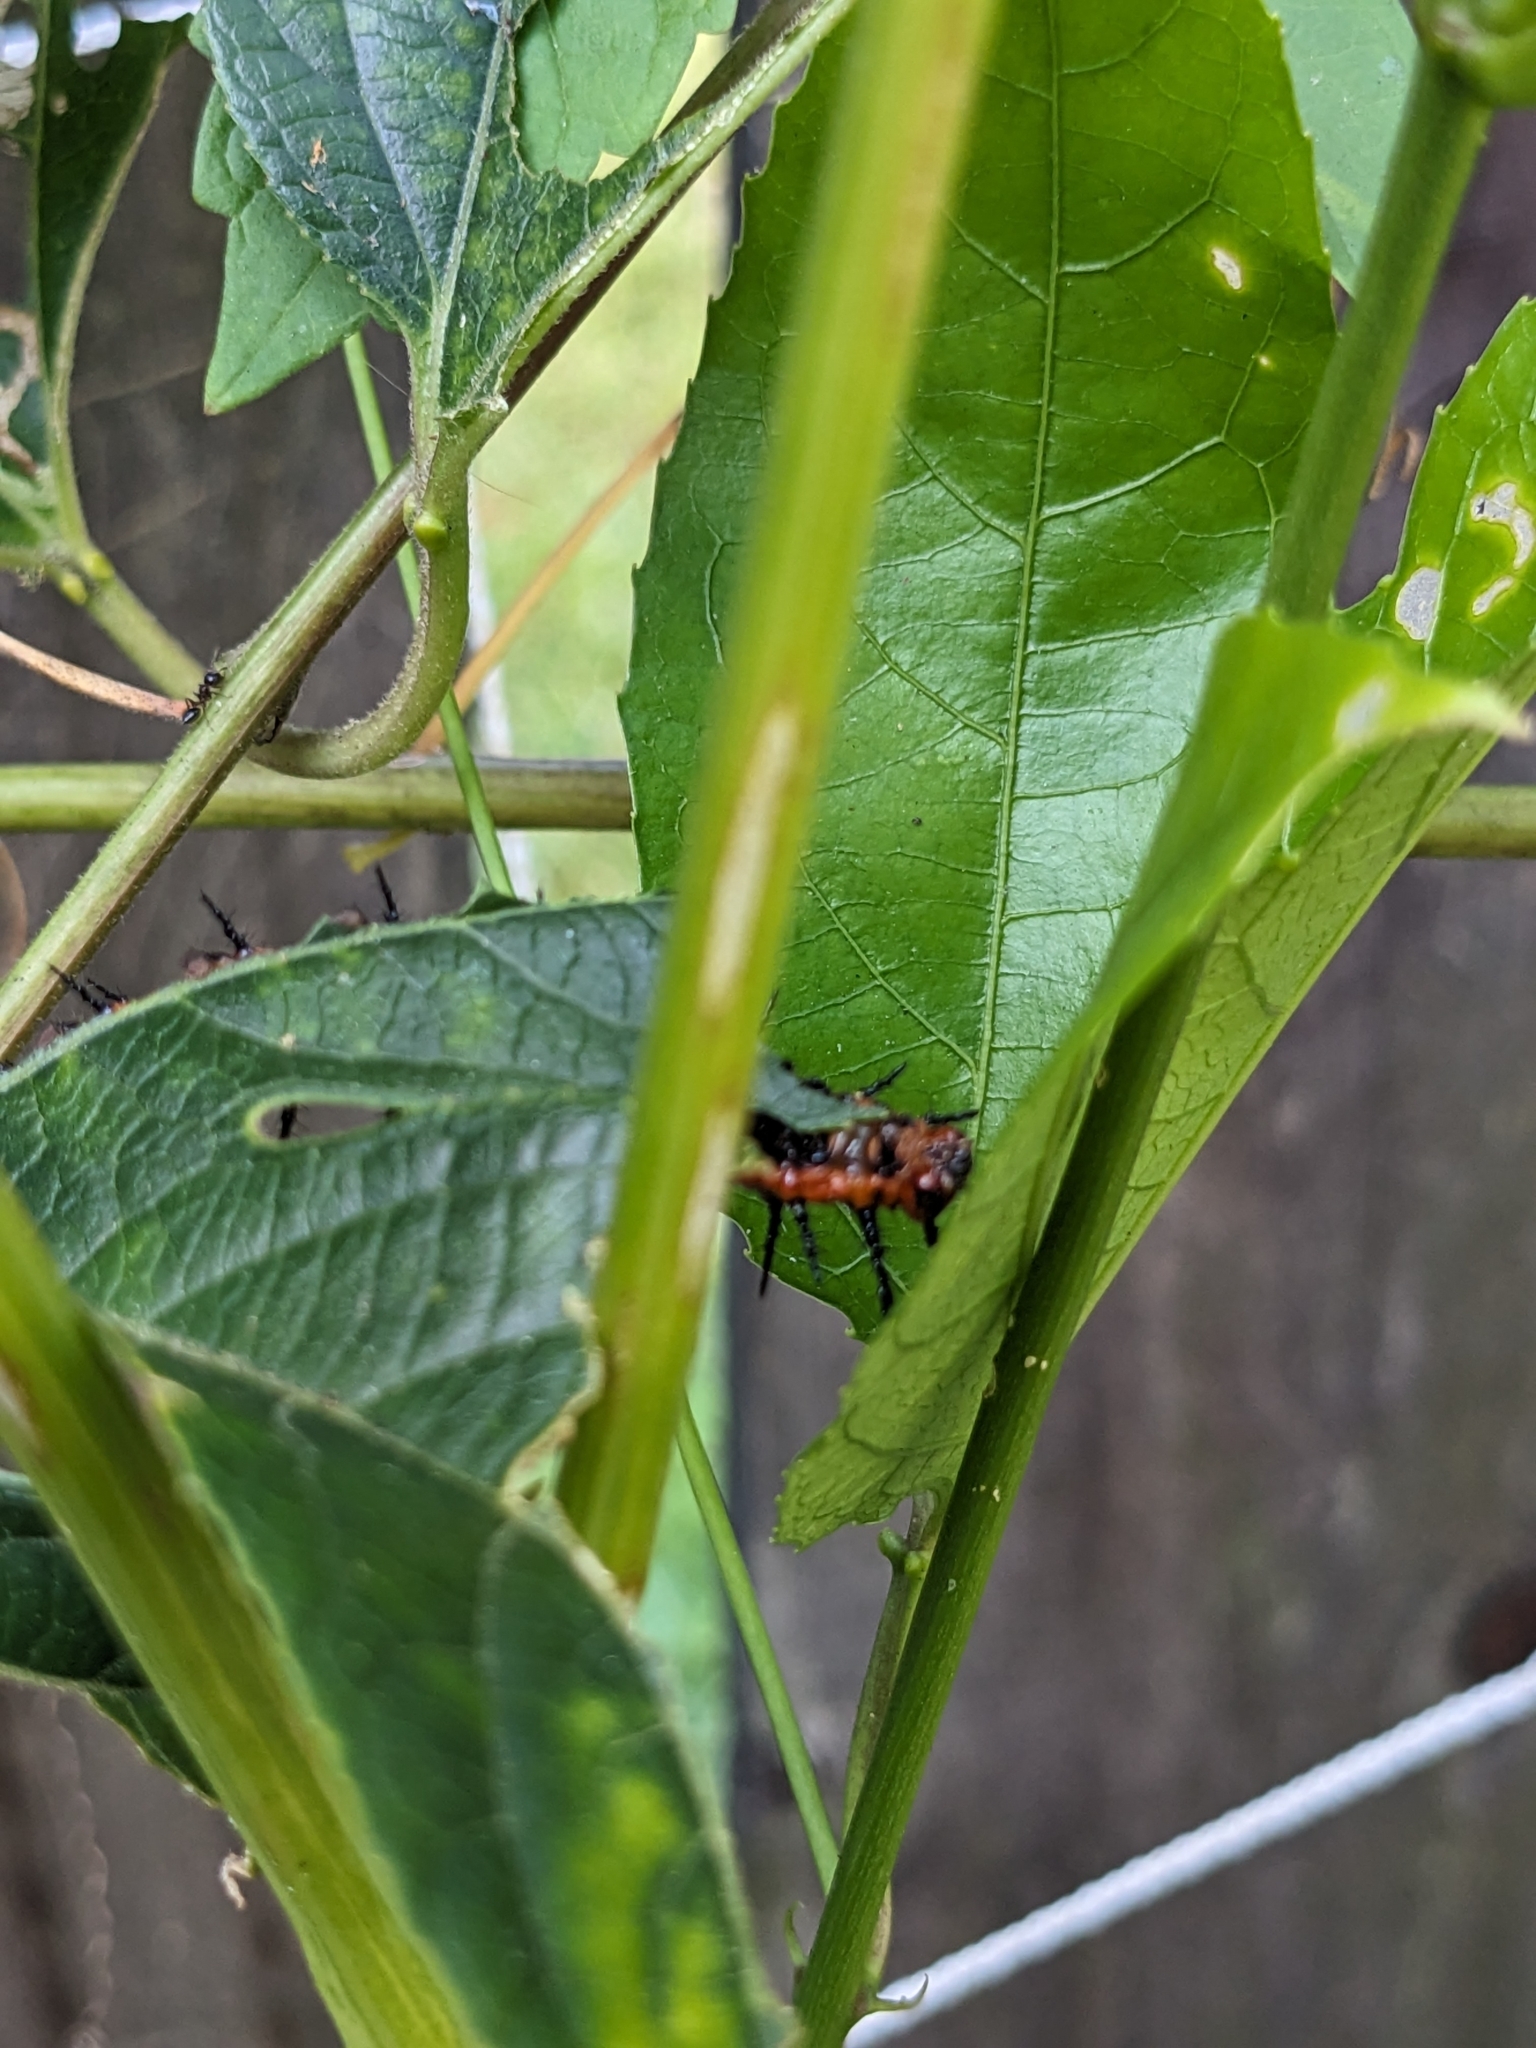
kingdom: Animalia
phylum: Arthropoda
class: Insecta
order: Lepidoptera
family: Nymphalidae
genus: Dione
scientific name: Dione vanillae
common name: Gulf fritillary
